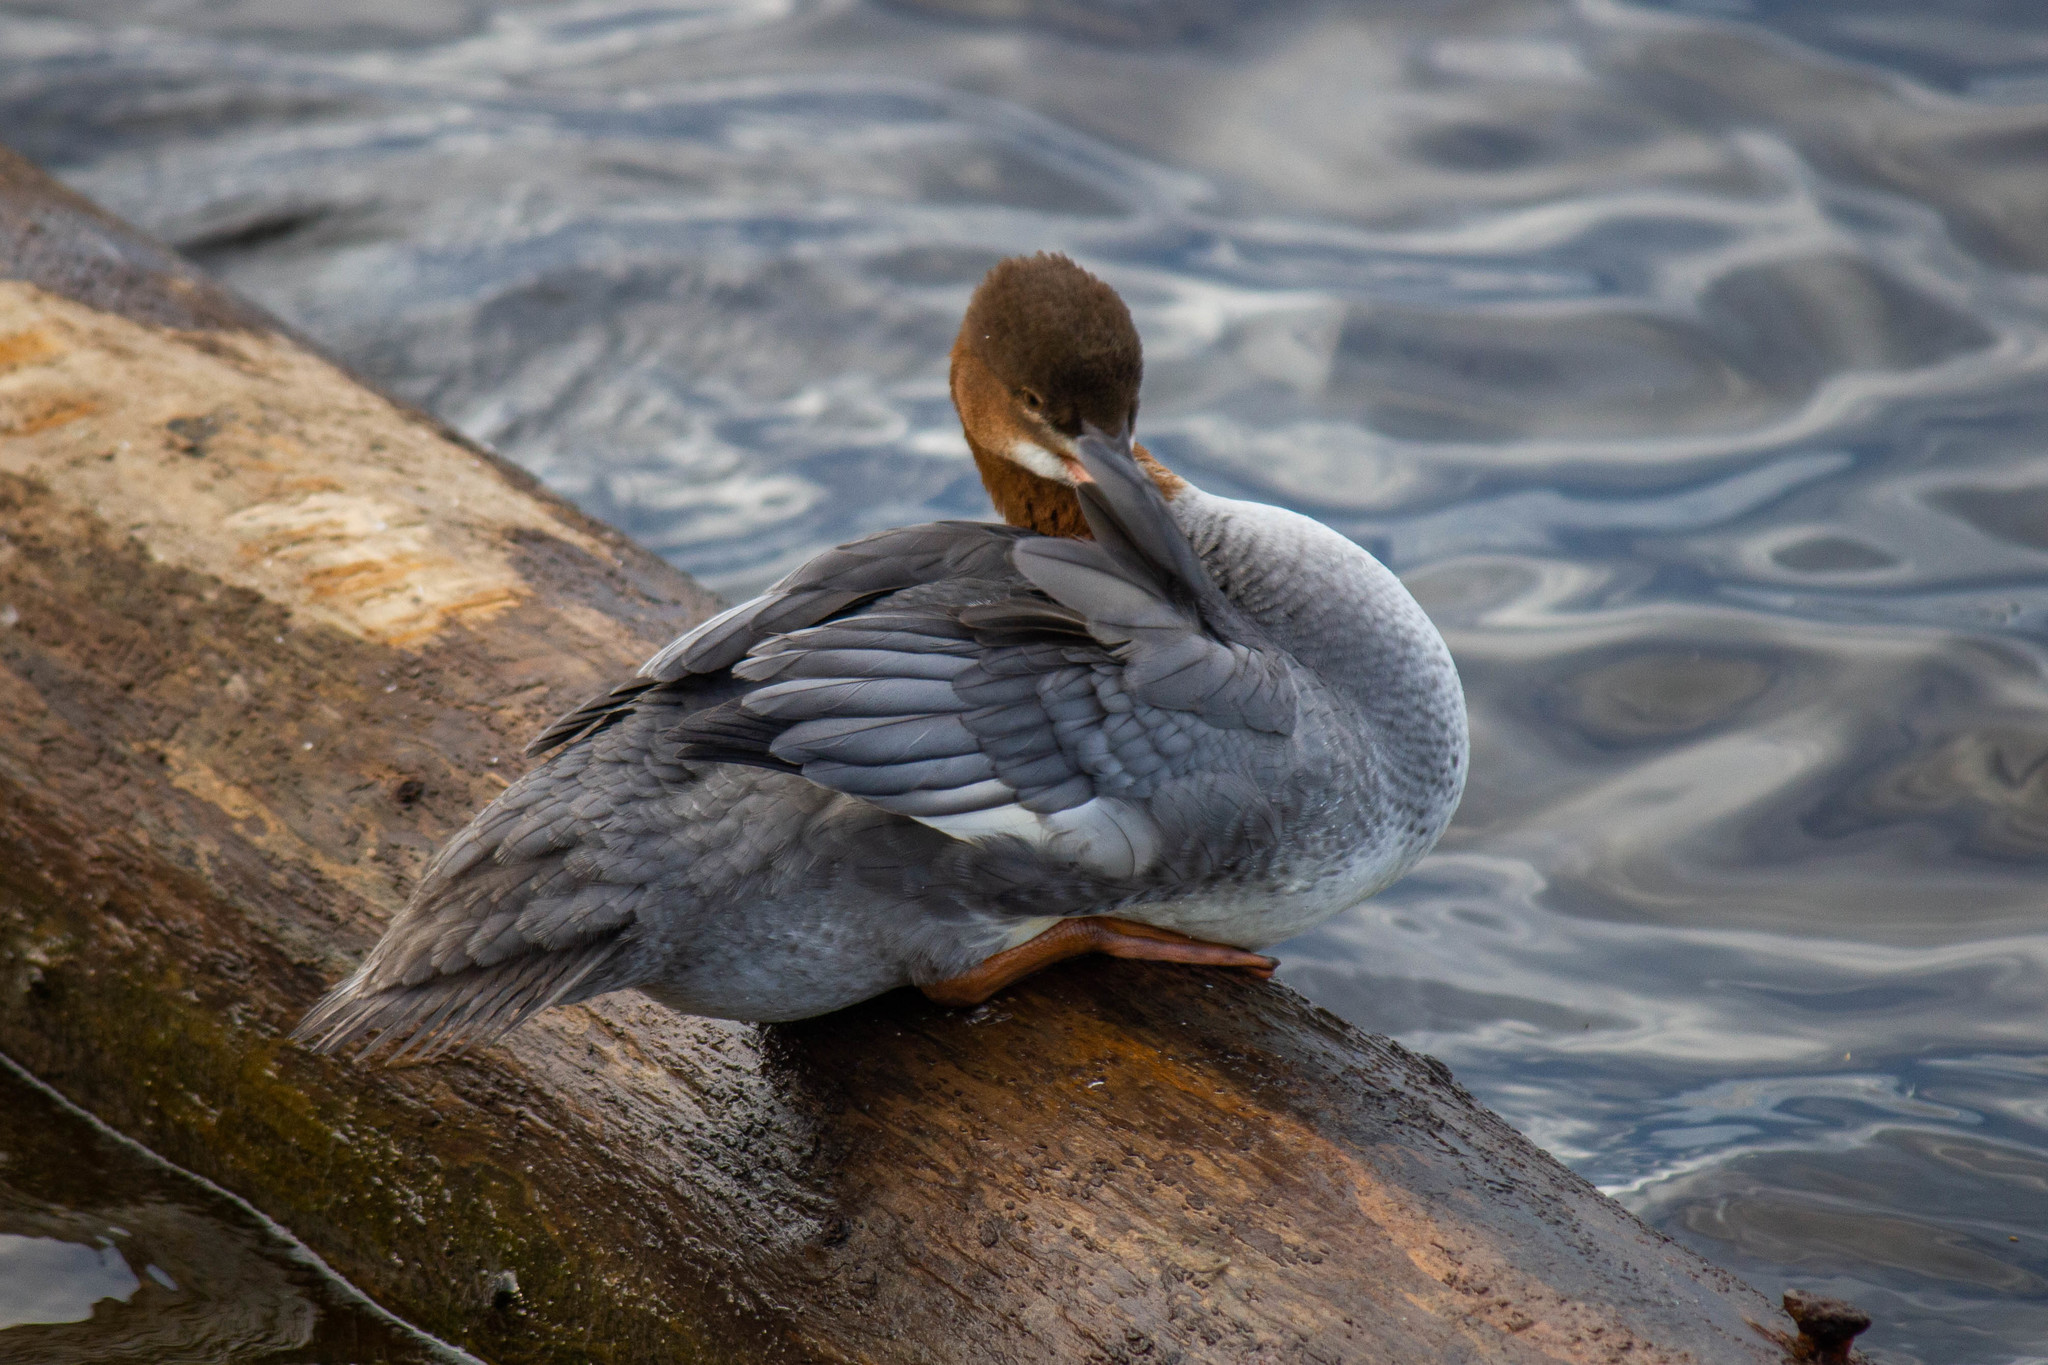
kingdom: Animalia
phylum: Chordata
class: Aves
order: Anseriformes
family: Anatidae
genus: Mergus
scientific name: Mergus merganser
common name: Common merganser
